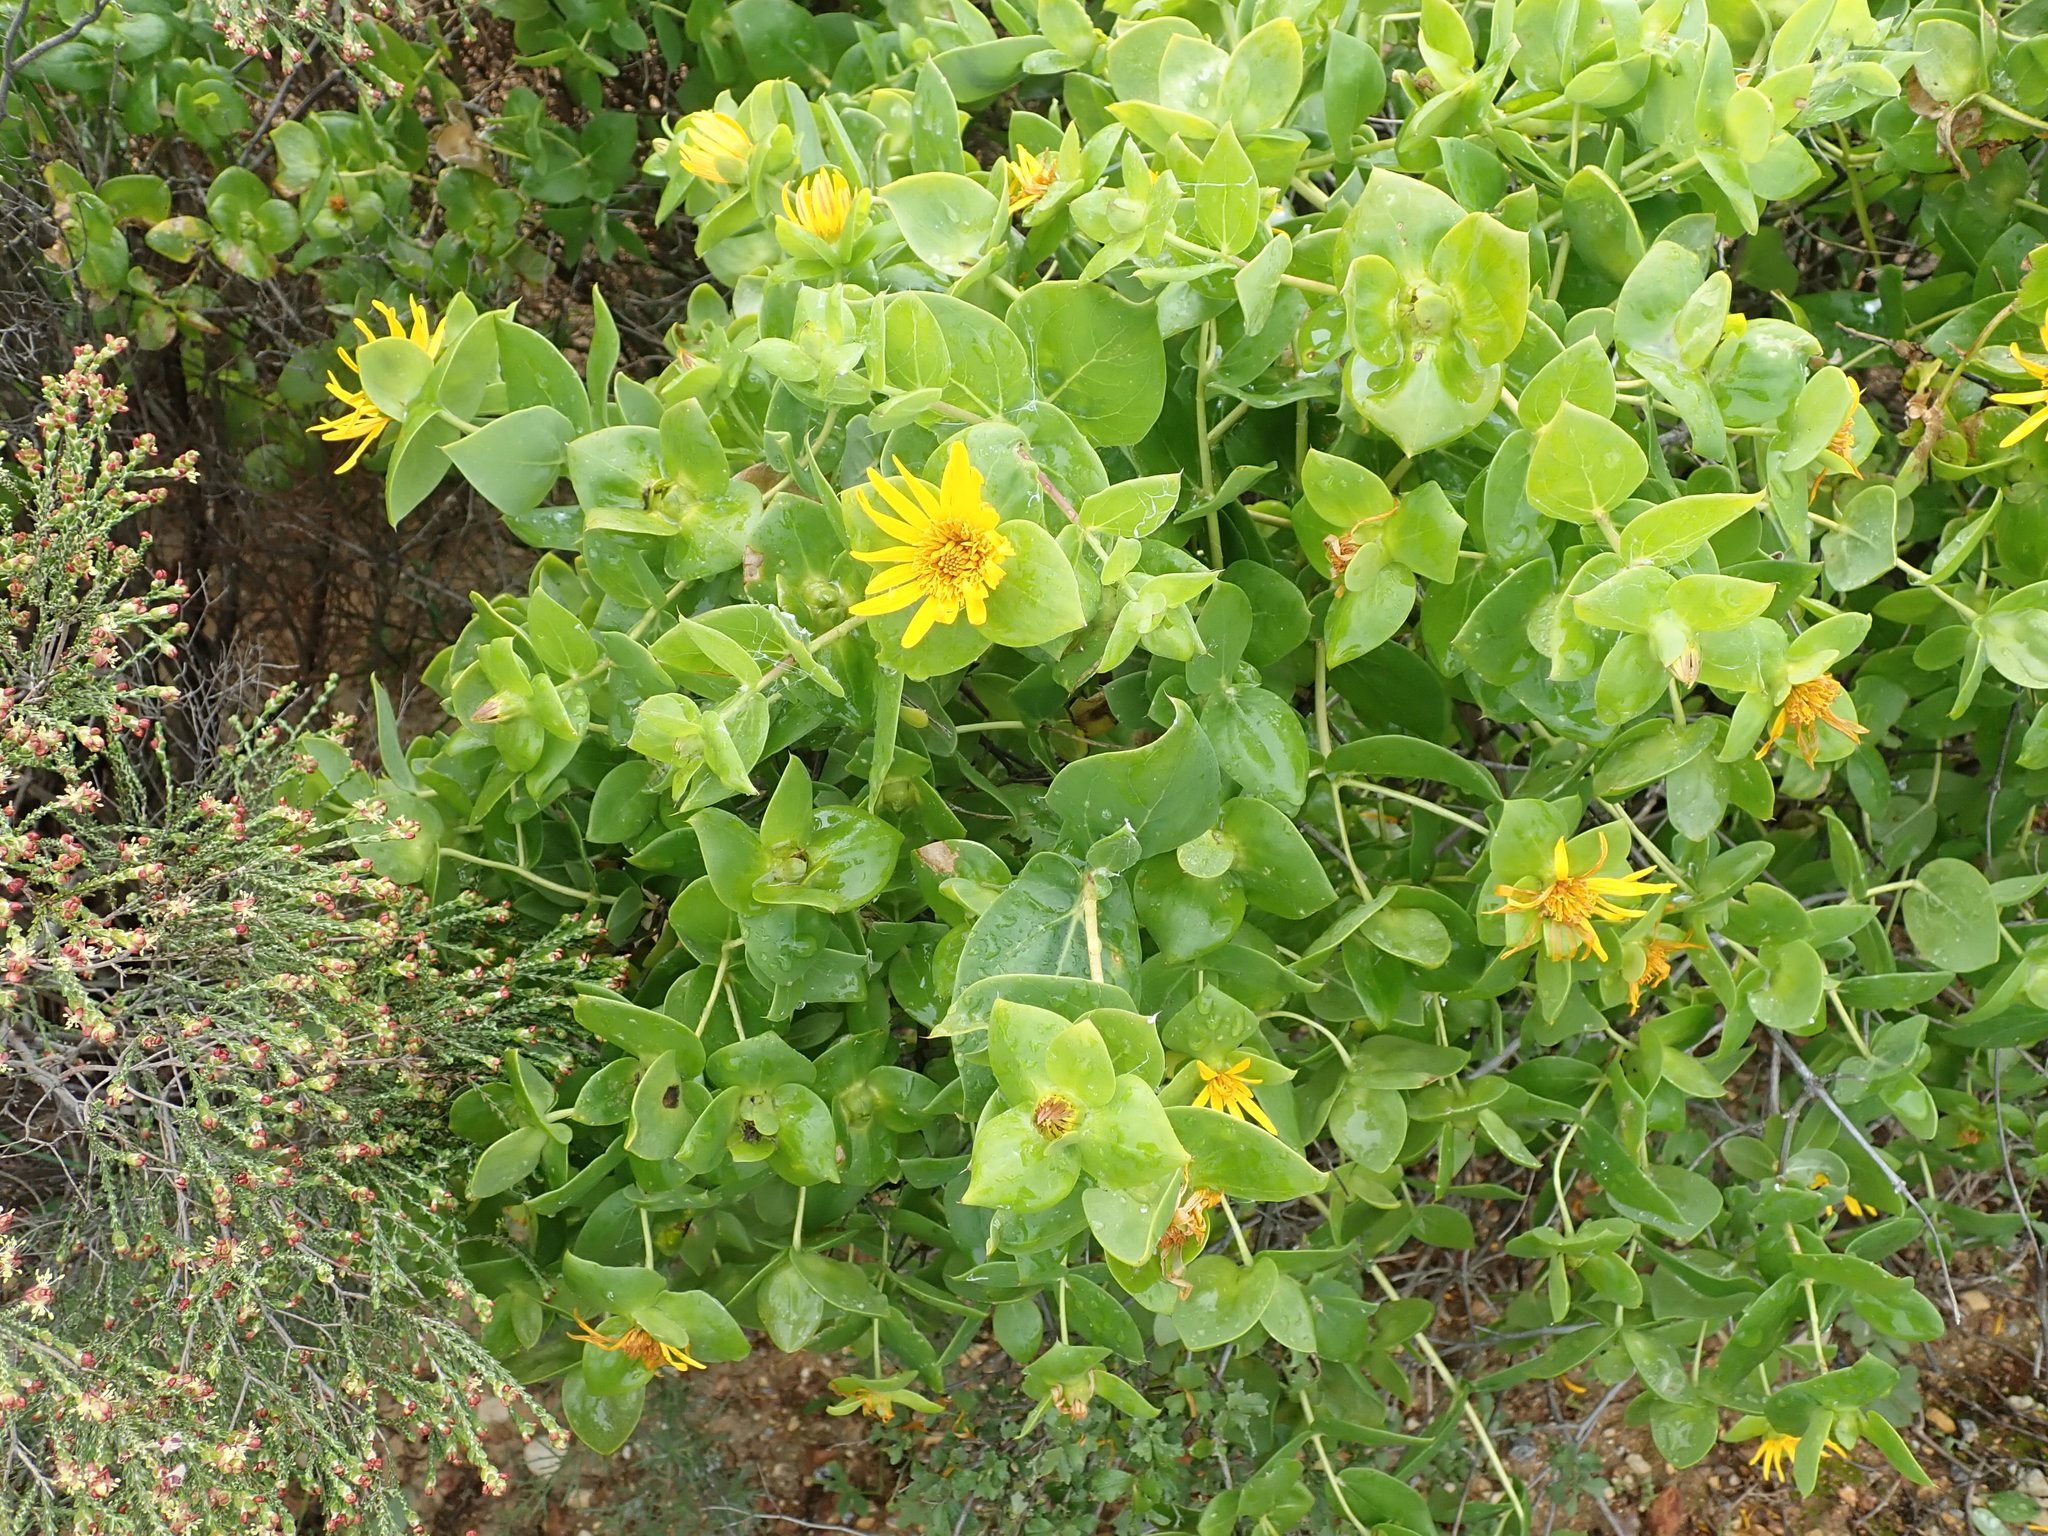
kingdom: Plantae
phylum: Tracheophyta
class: Magnoliopsida
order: Asterales
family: Asteraceae
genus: Didelta
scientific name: Didelta spinosa
